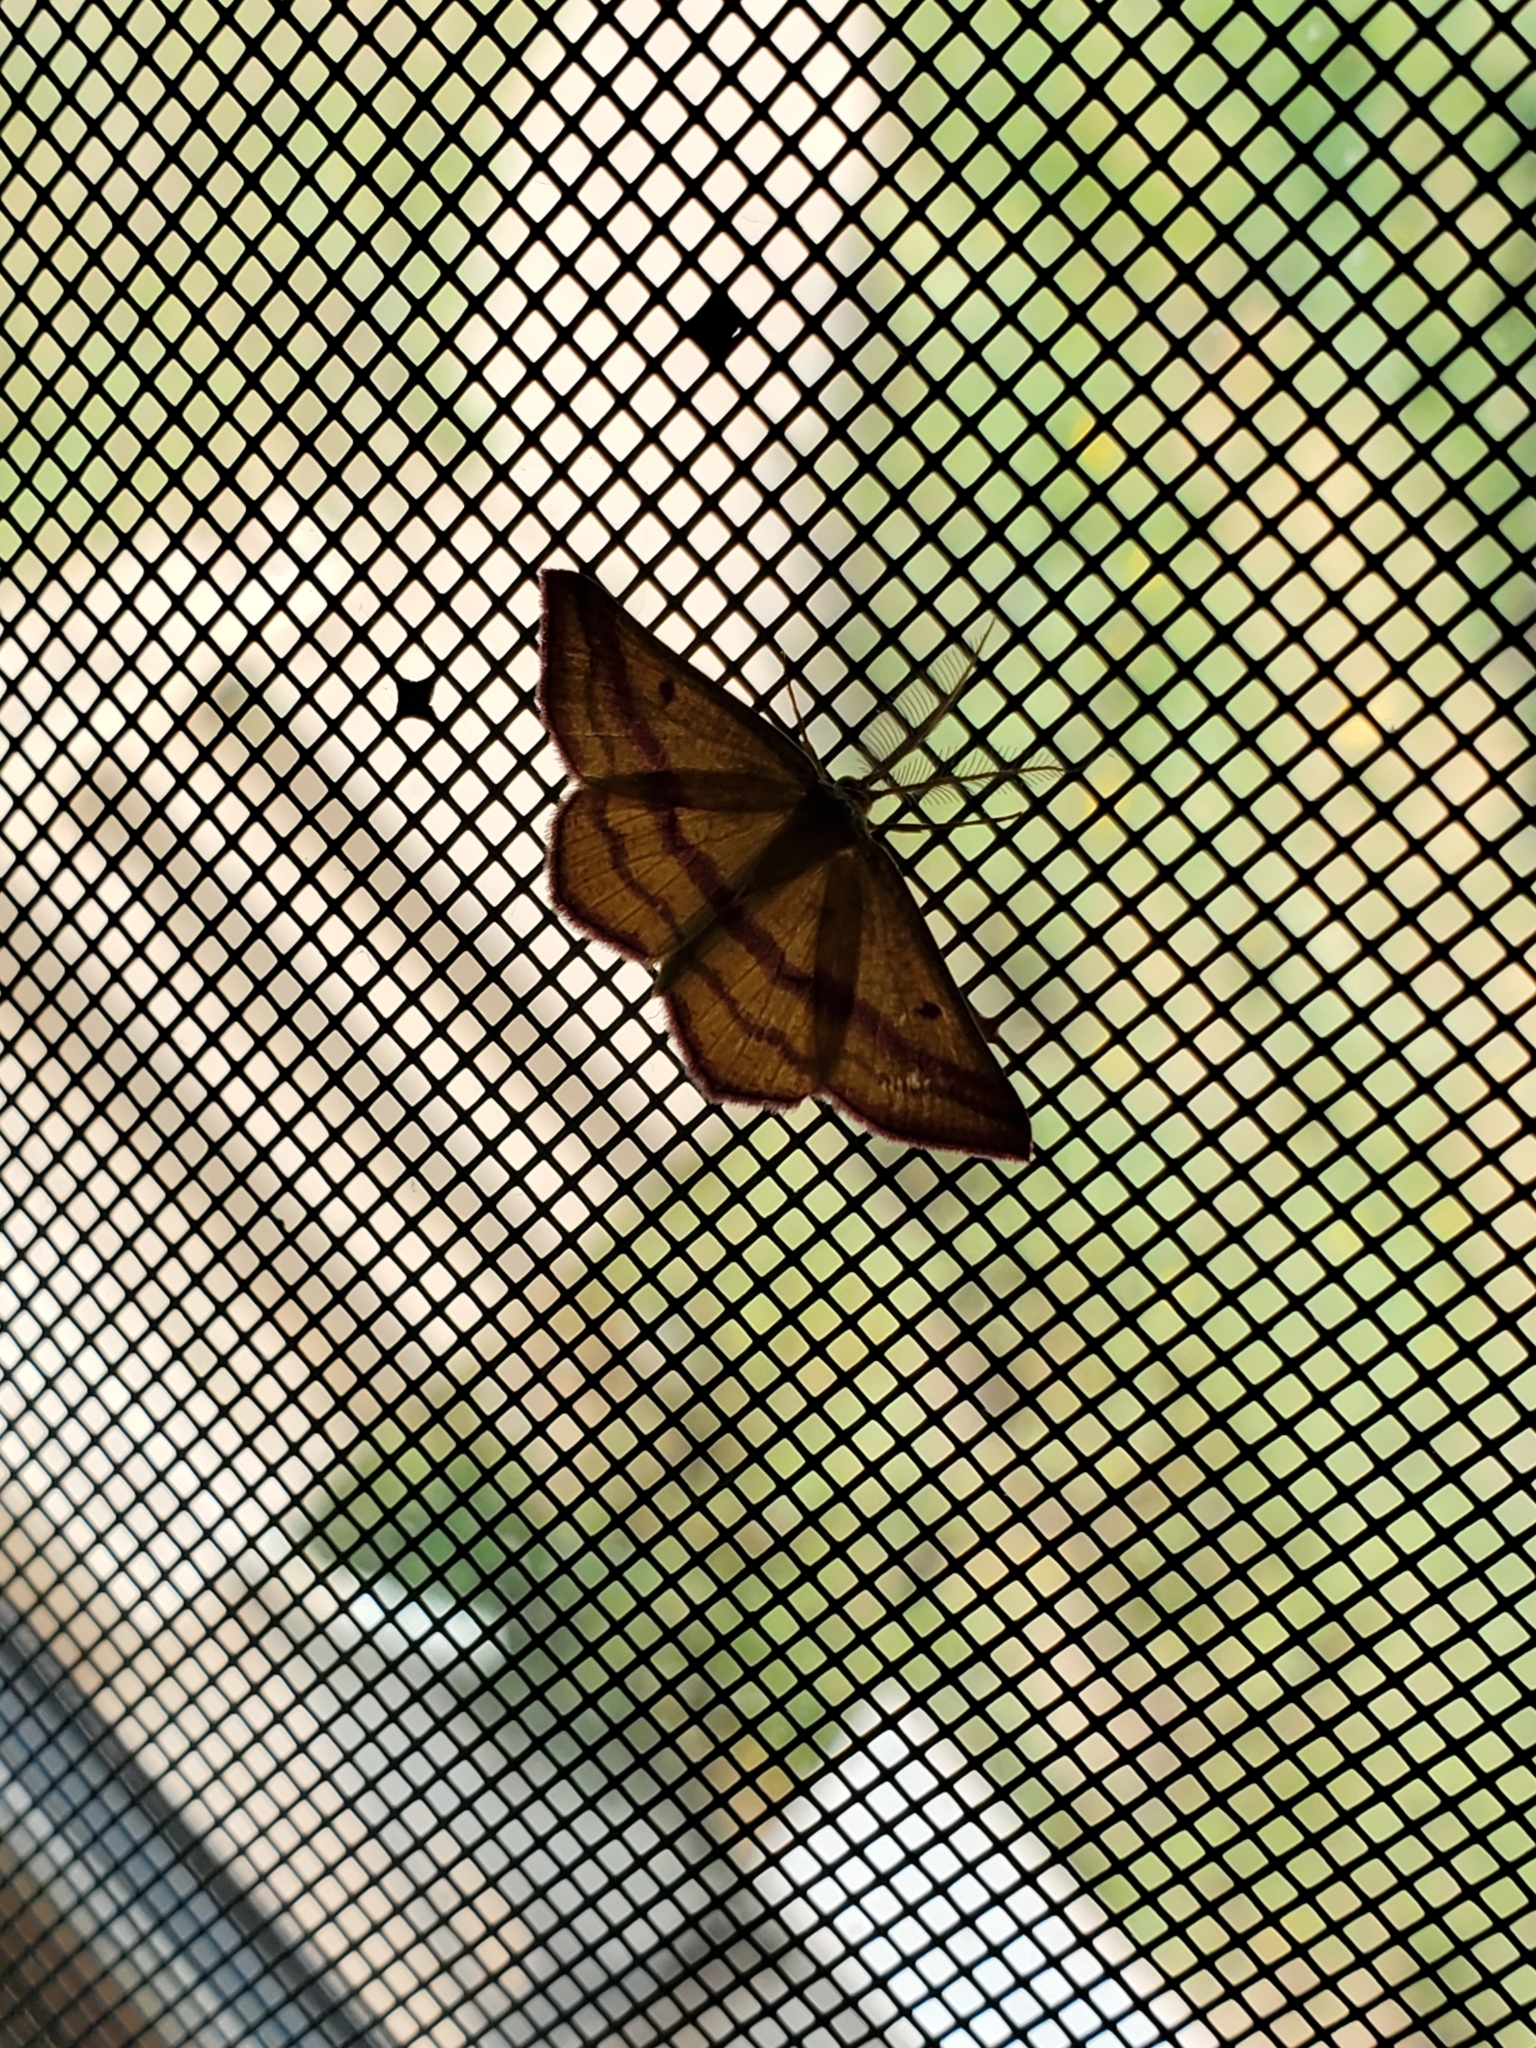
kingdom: Animalia
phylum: Arthropoda
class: Insecta
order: Lepidoptera
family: Geometridae
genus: Haematopis
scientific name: Haematopis grataria
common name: Chickweed geometer
